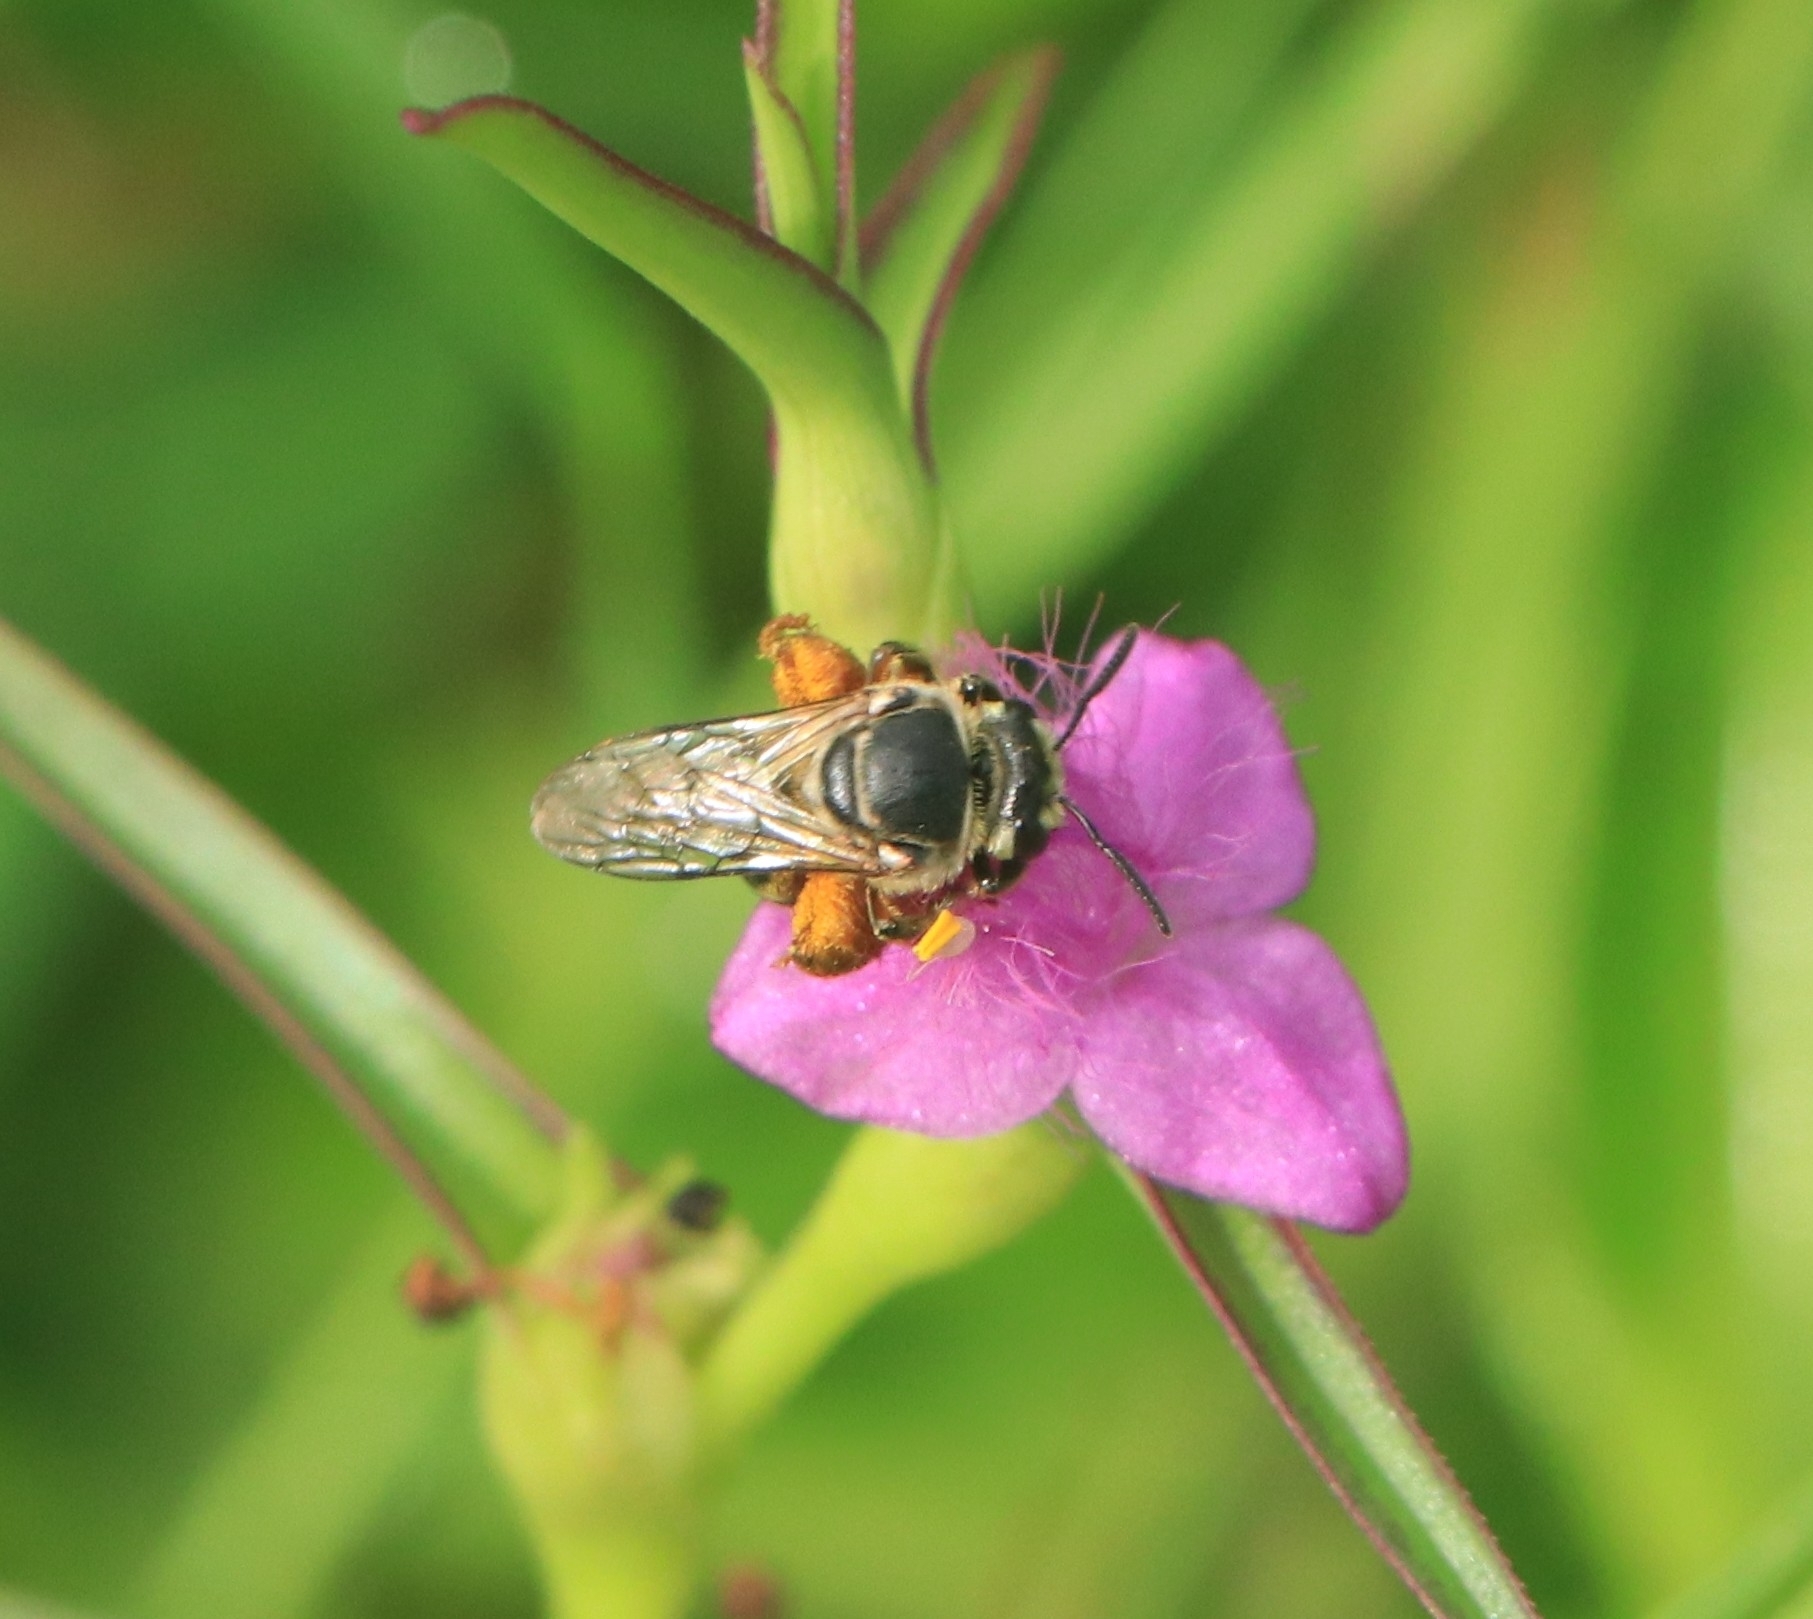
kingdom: Animalia
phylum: Arthropoda
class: Insecta
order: Hymenoptera
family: Halictidae
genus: Nomia
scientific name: Nomia westwoodi
